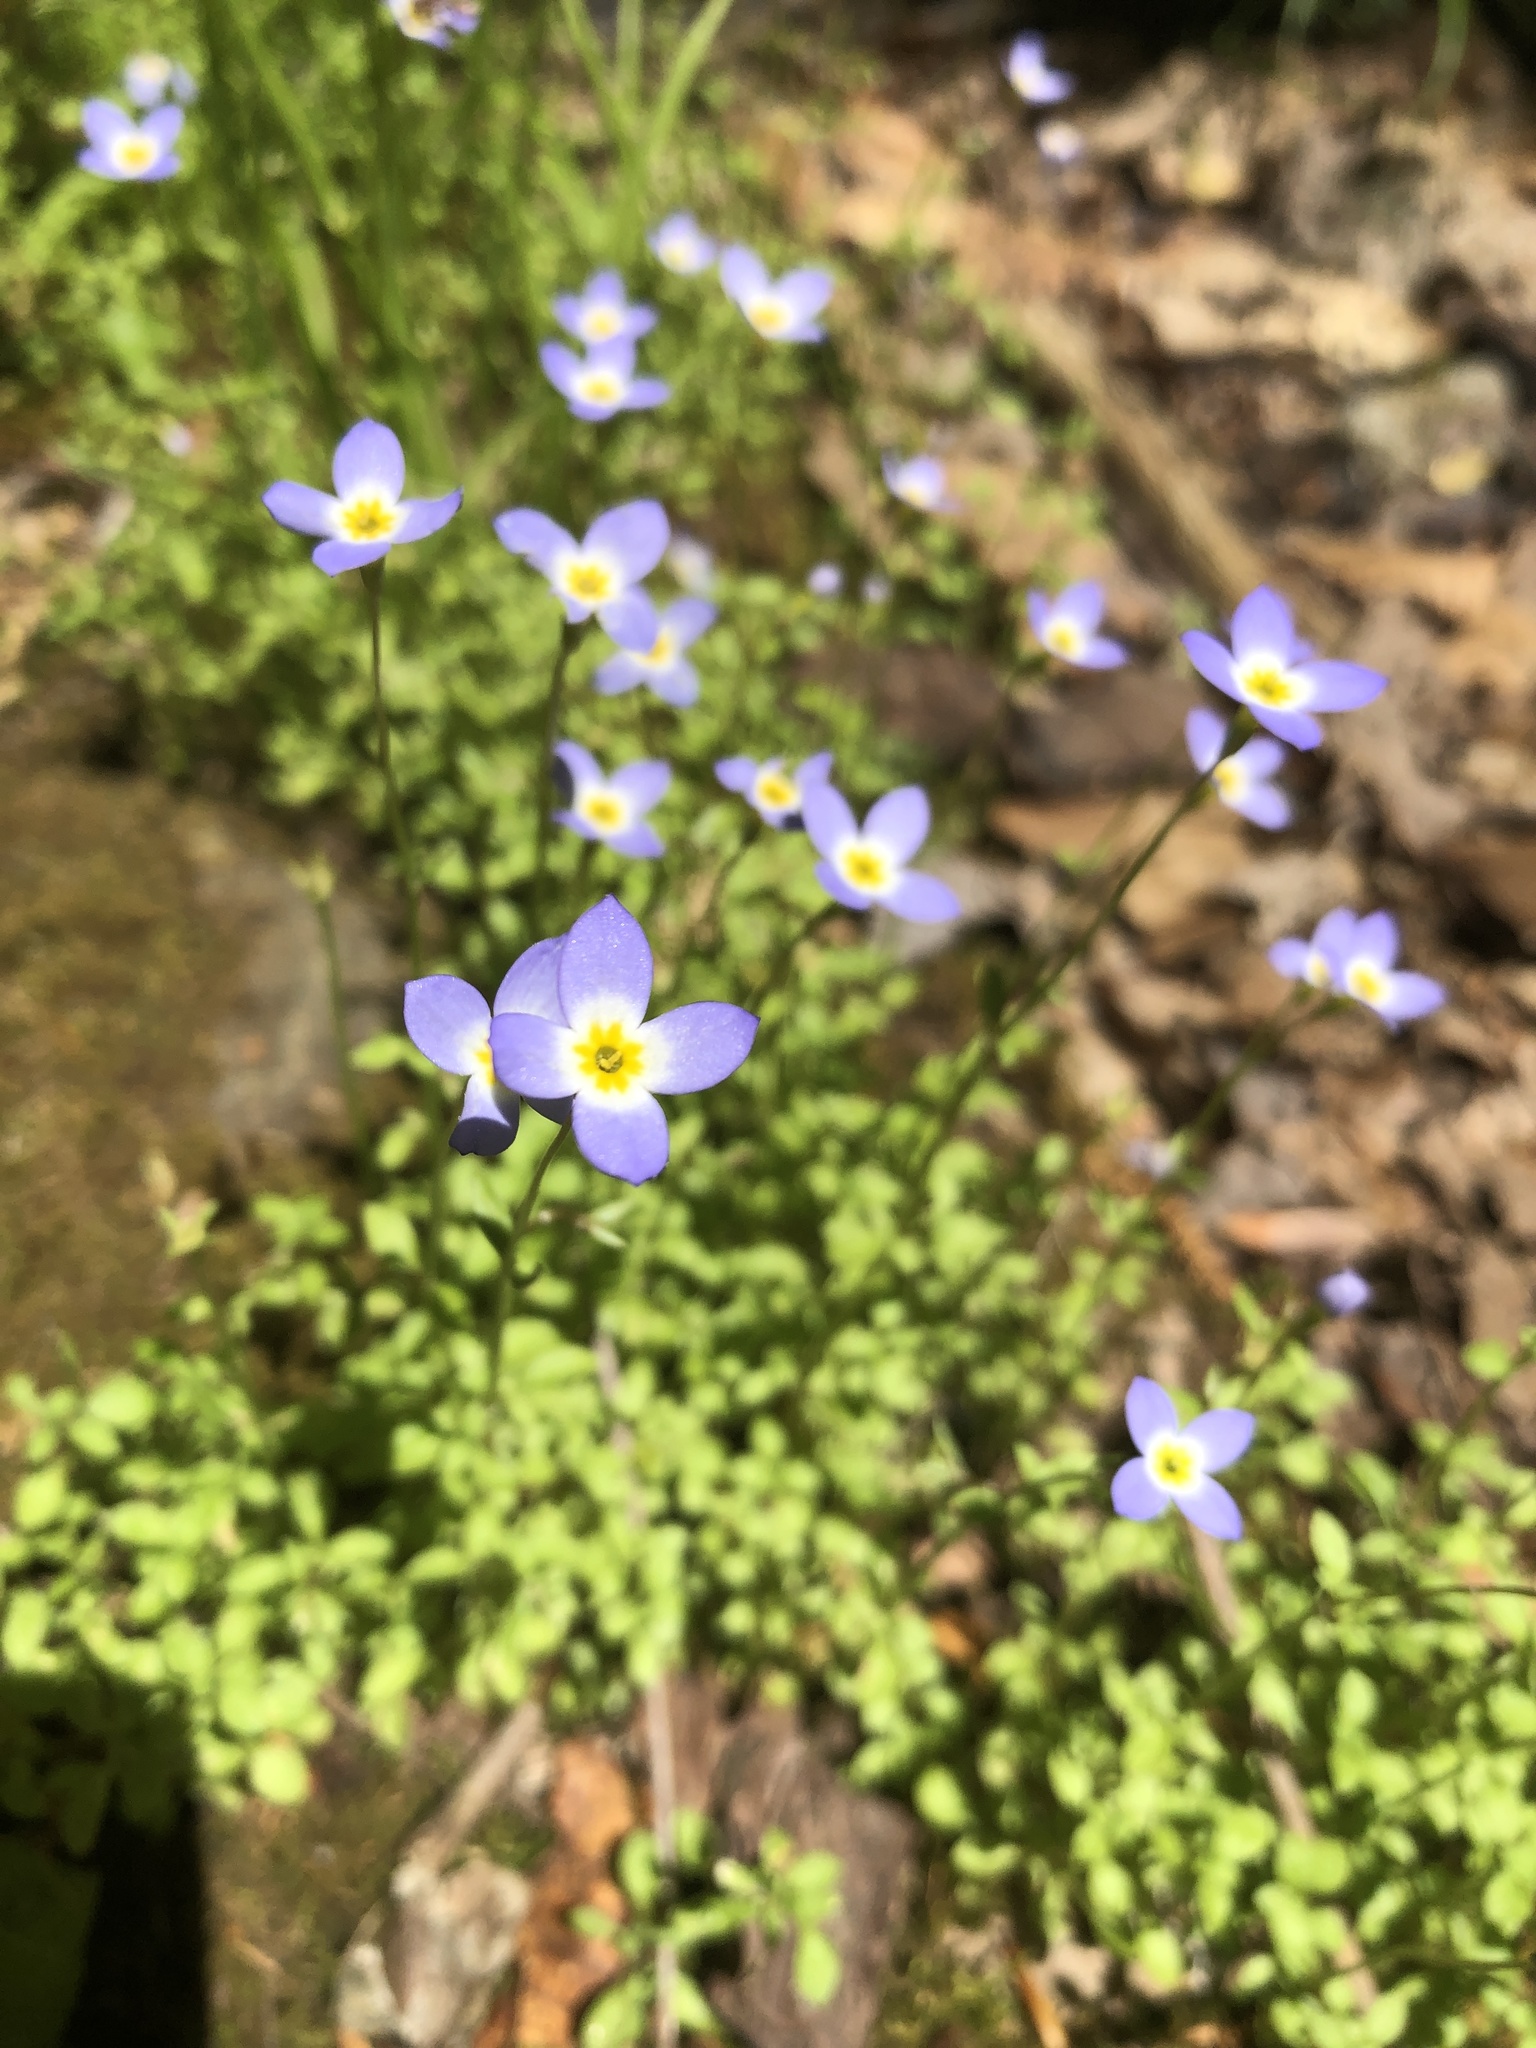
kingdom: Plantae
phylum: Tracheophyta
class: Magnoliopsida
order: Gentianales
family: Rubiaceae
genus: Houstonia
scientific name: Houstonia serpyllifolia
